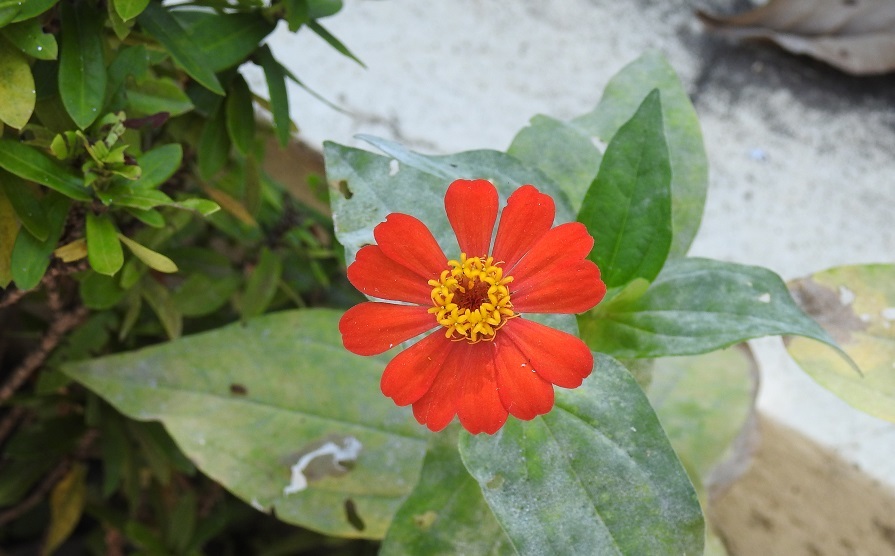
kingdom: Plantae
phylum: Tracheophyta
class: Magnoliopsida
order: Asterales
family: Asteraceae
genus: Zinnia
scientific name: Zinnia elegans
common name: Youth-and-age
